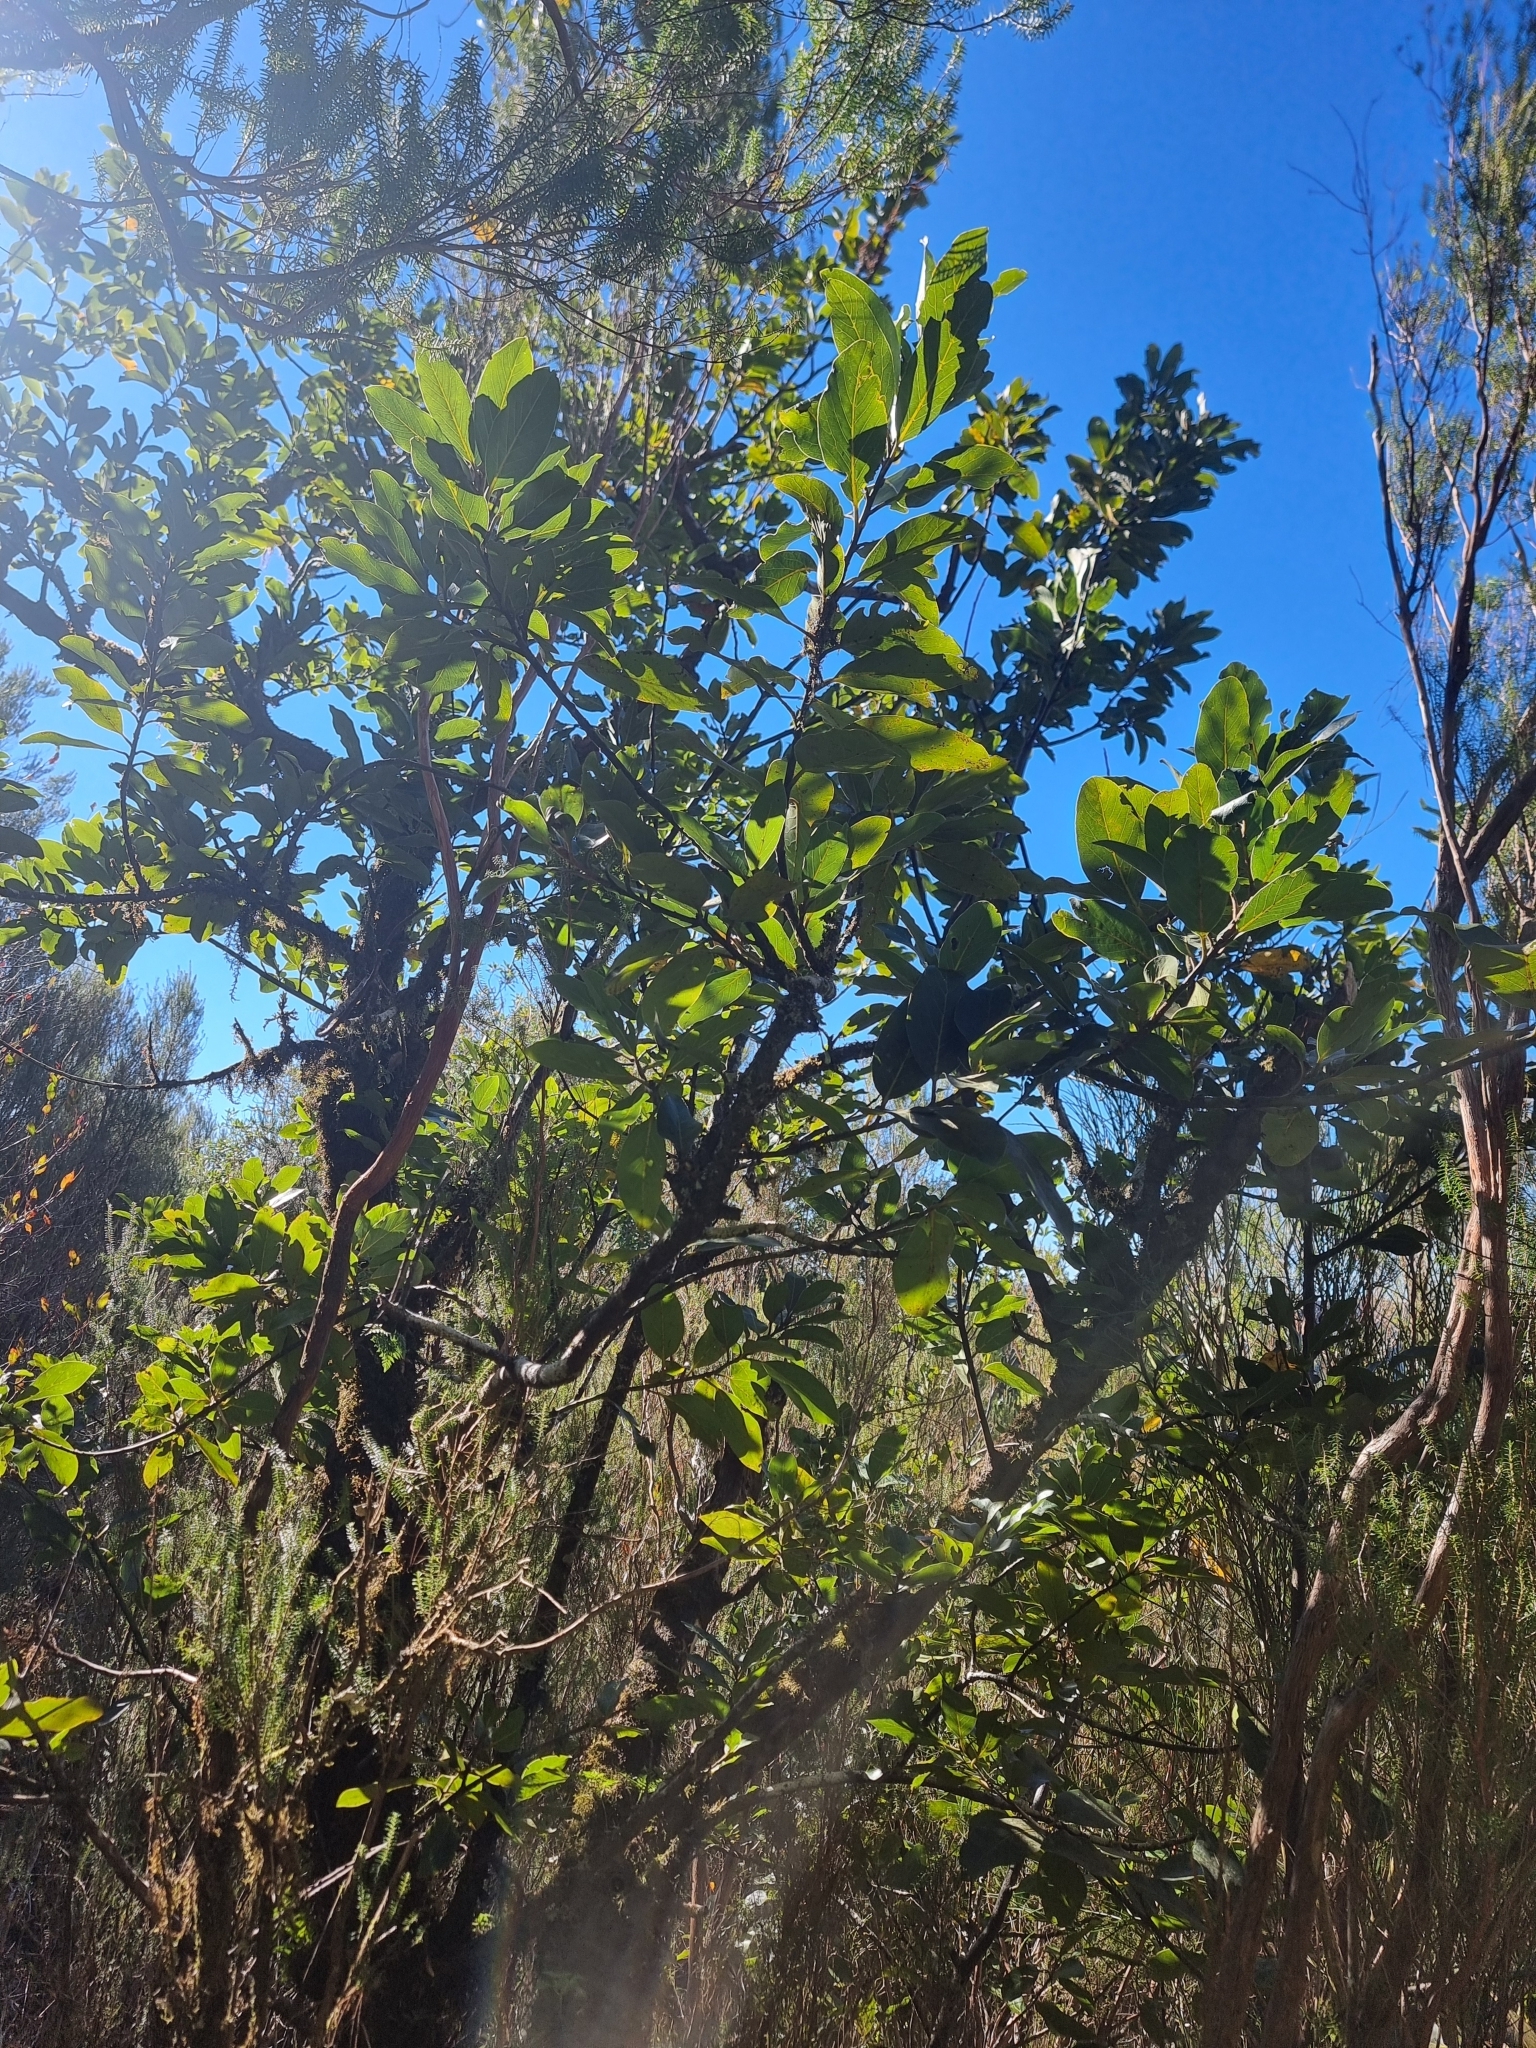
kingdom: Plantae
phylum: Tracheophyta
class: Magnoliopsida
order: Laurales
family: Lauraceae
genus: Laurus
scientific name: Laurus novocanariensis
